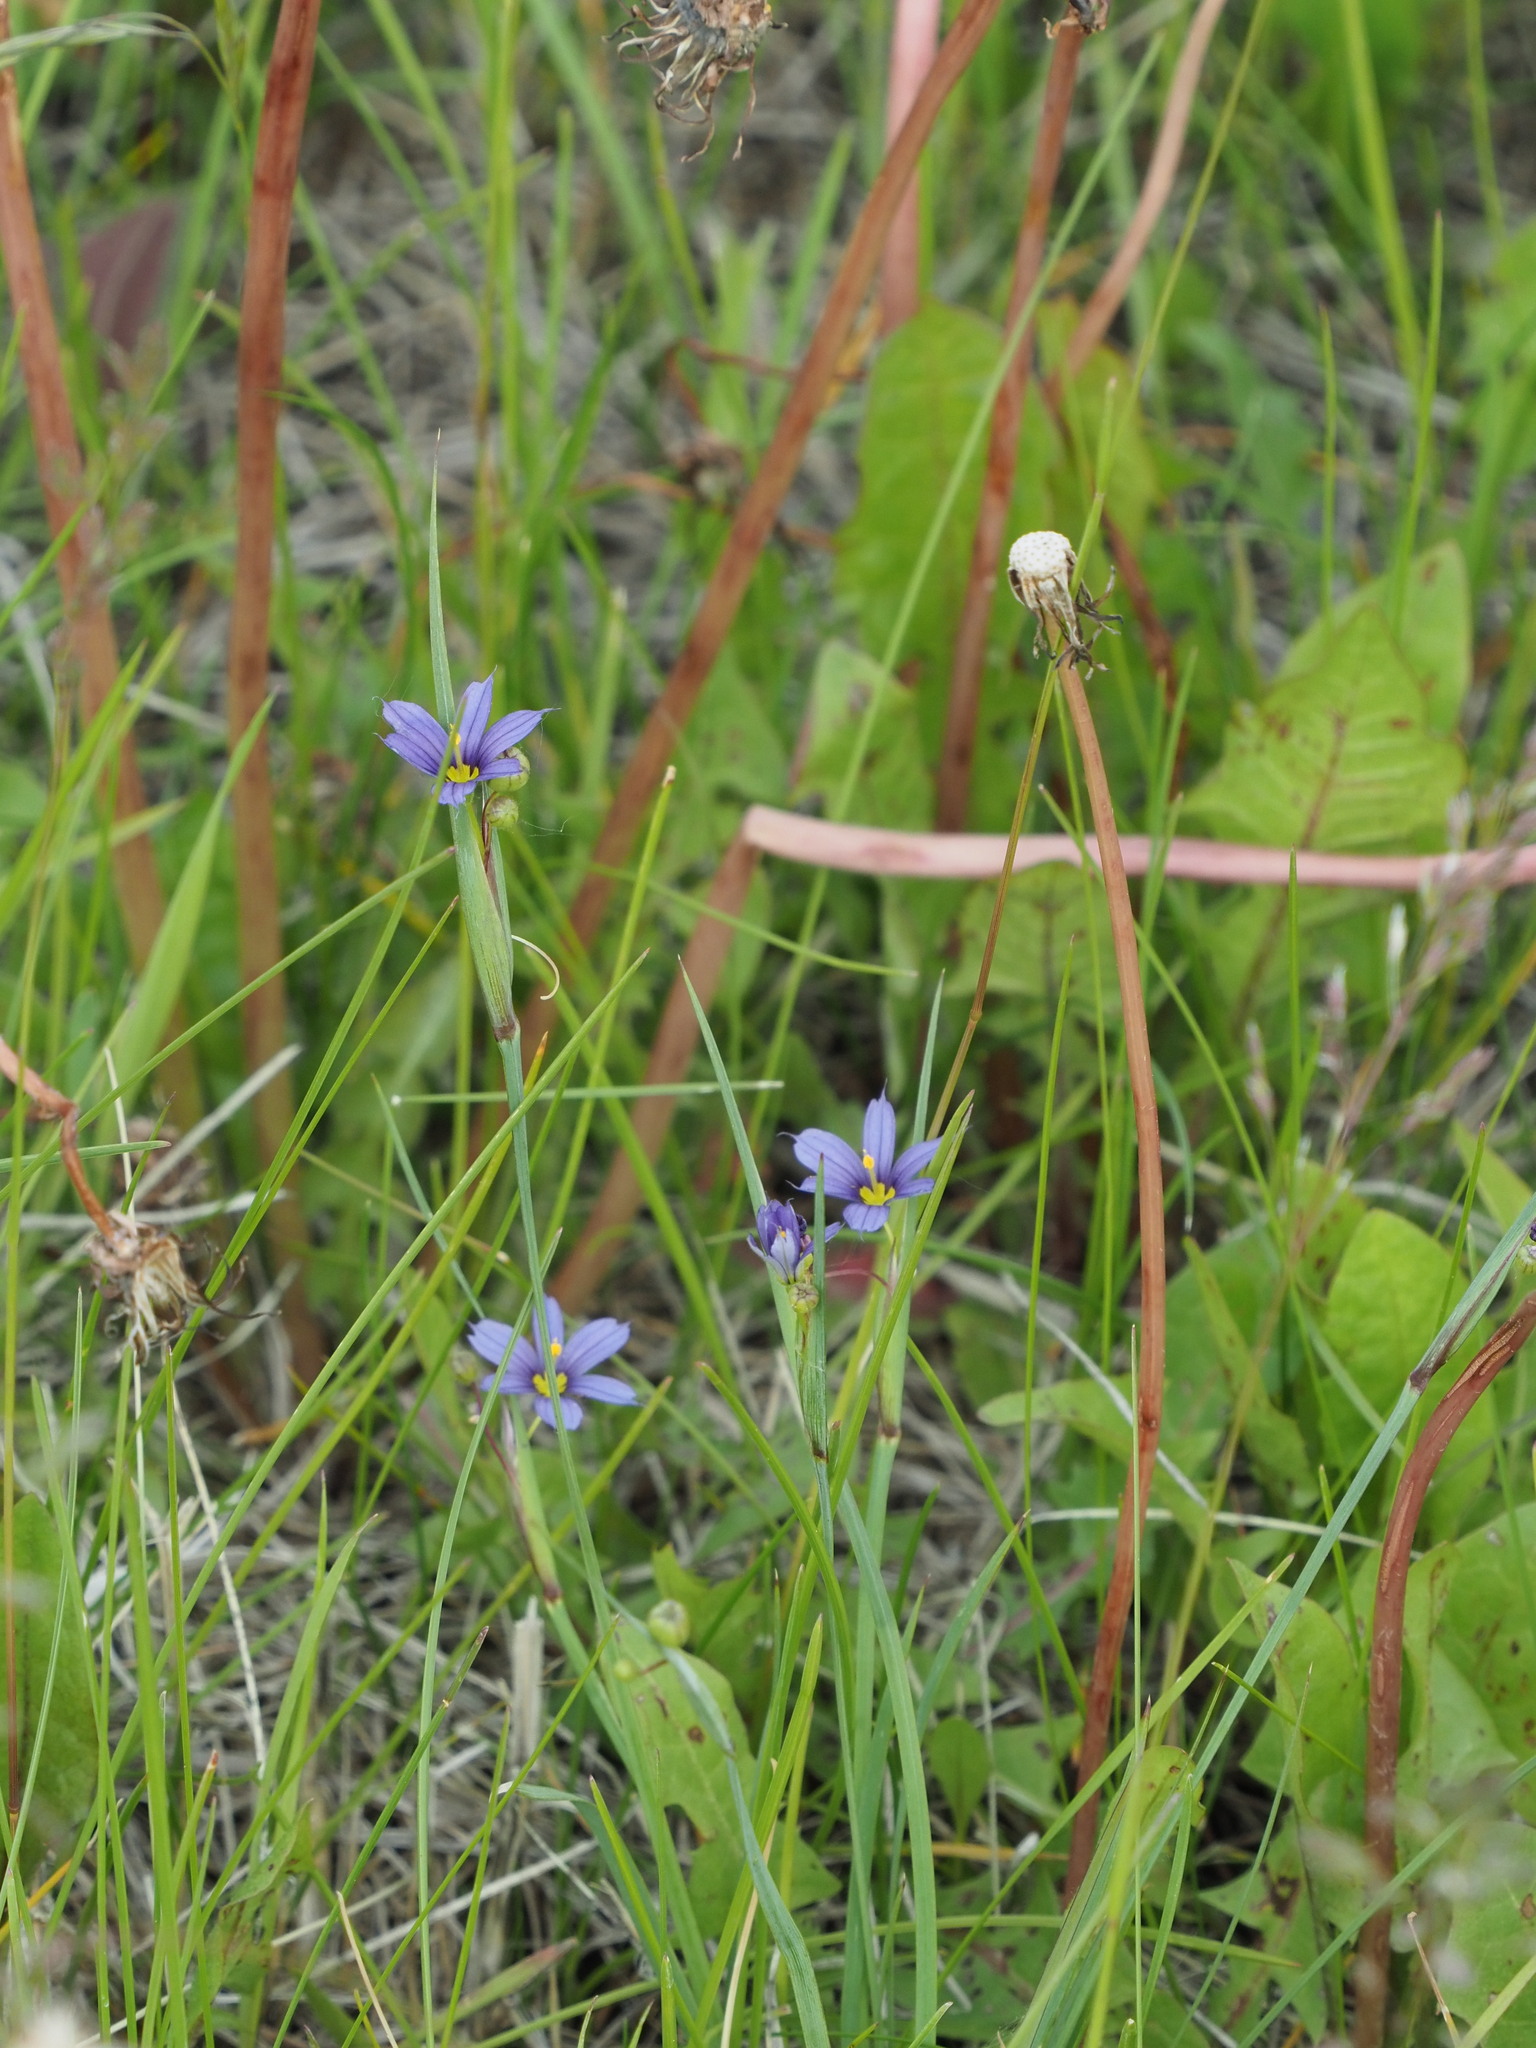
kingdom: Plantae
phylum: Tracheophyta
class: Liliopsida
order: Asparagales
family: Iridaceae
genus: Sisyrinchium
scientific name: Sisyrinchium montanum
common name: American blue-eyed-grass
